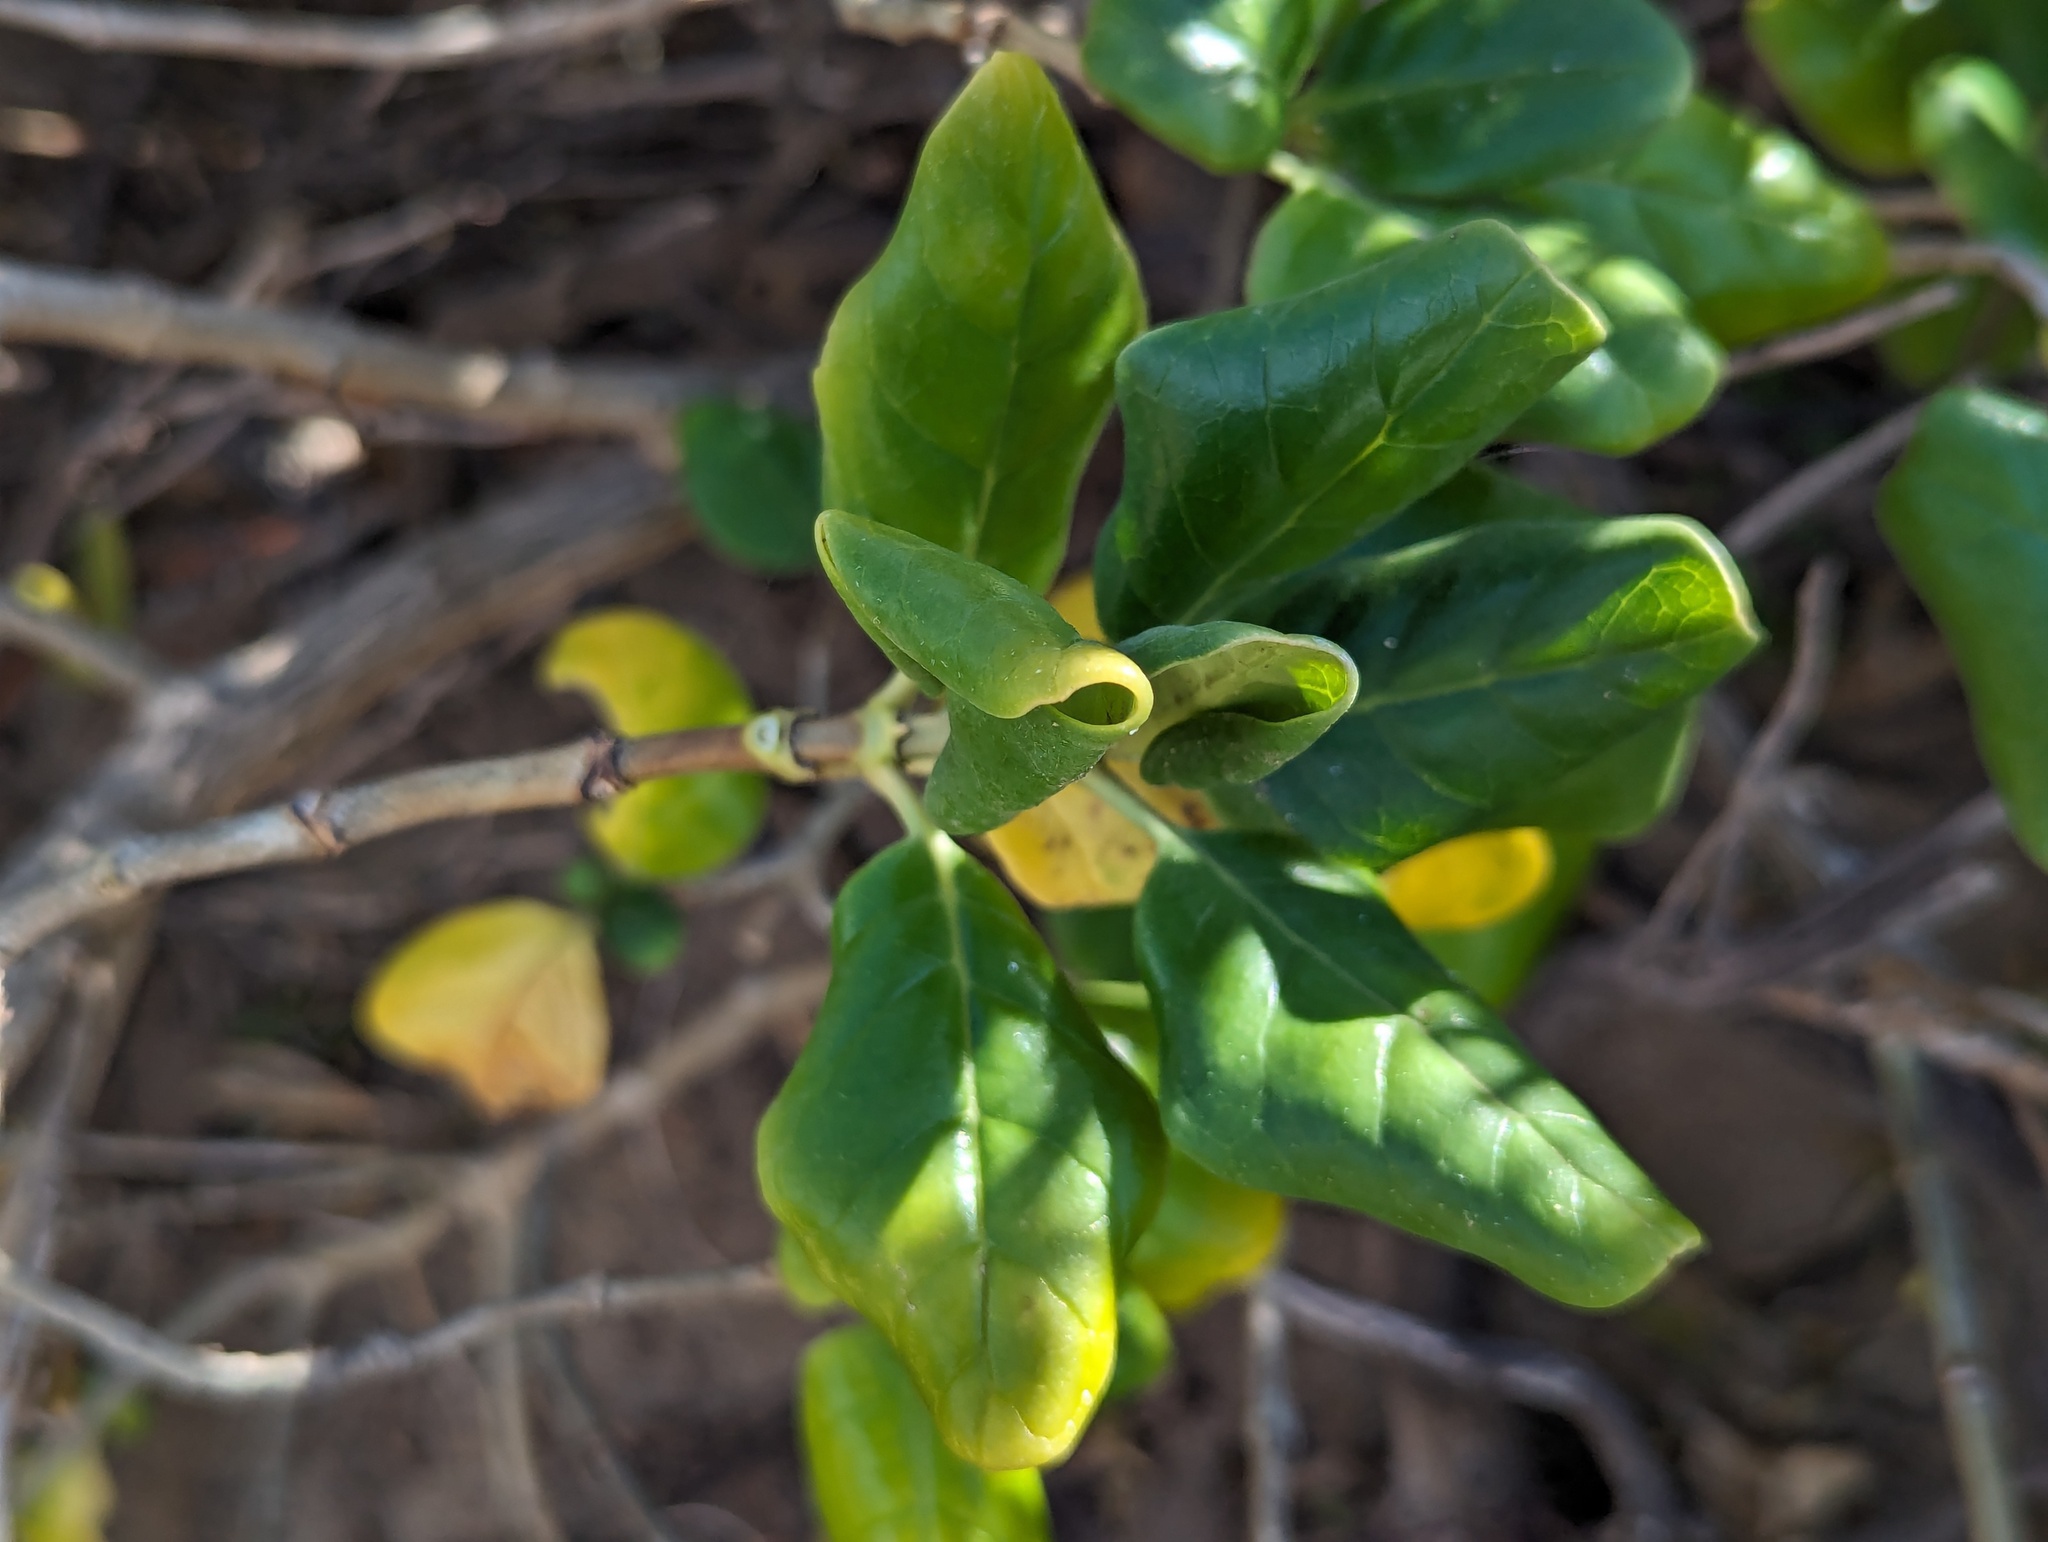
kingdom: Plantae
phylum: Tracheophyta
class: Magnoliopsida
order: Gentianales
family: Rubiaceae
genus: Coprosma
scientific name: Coprosma repens
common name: Tree bedstraw
